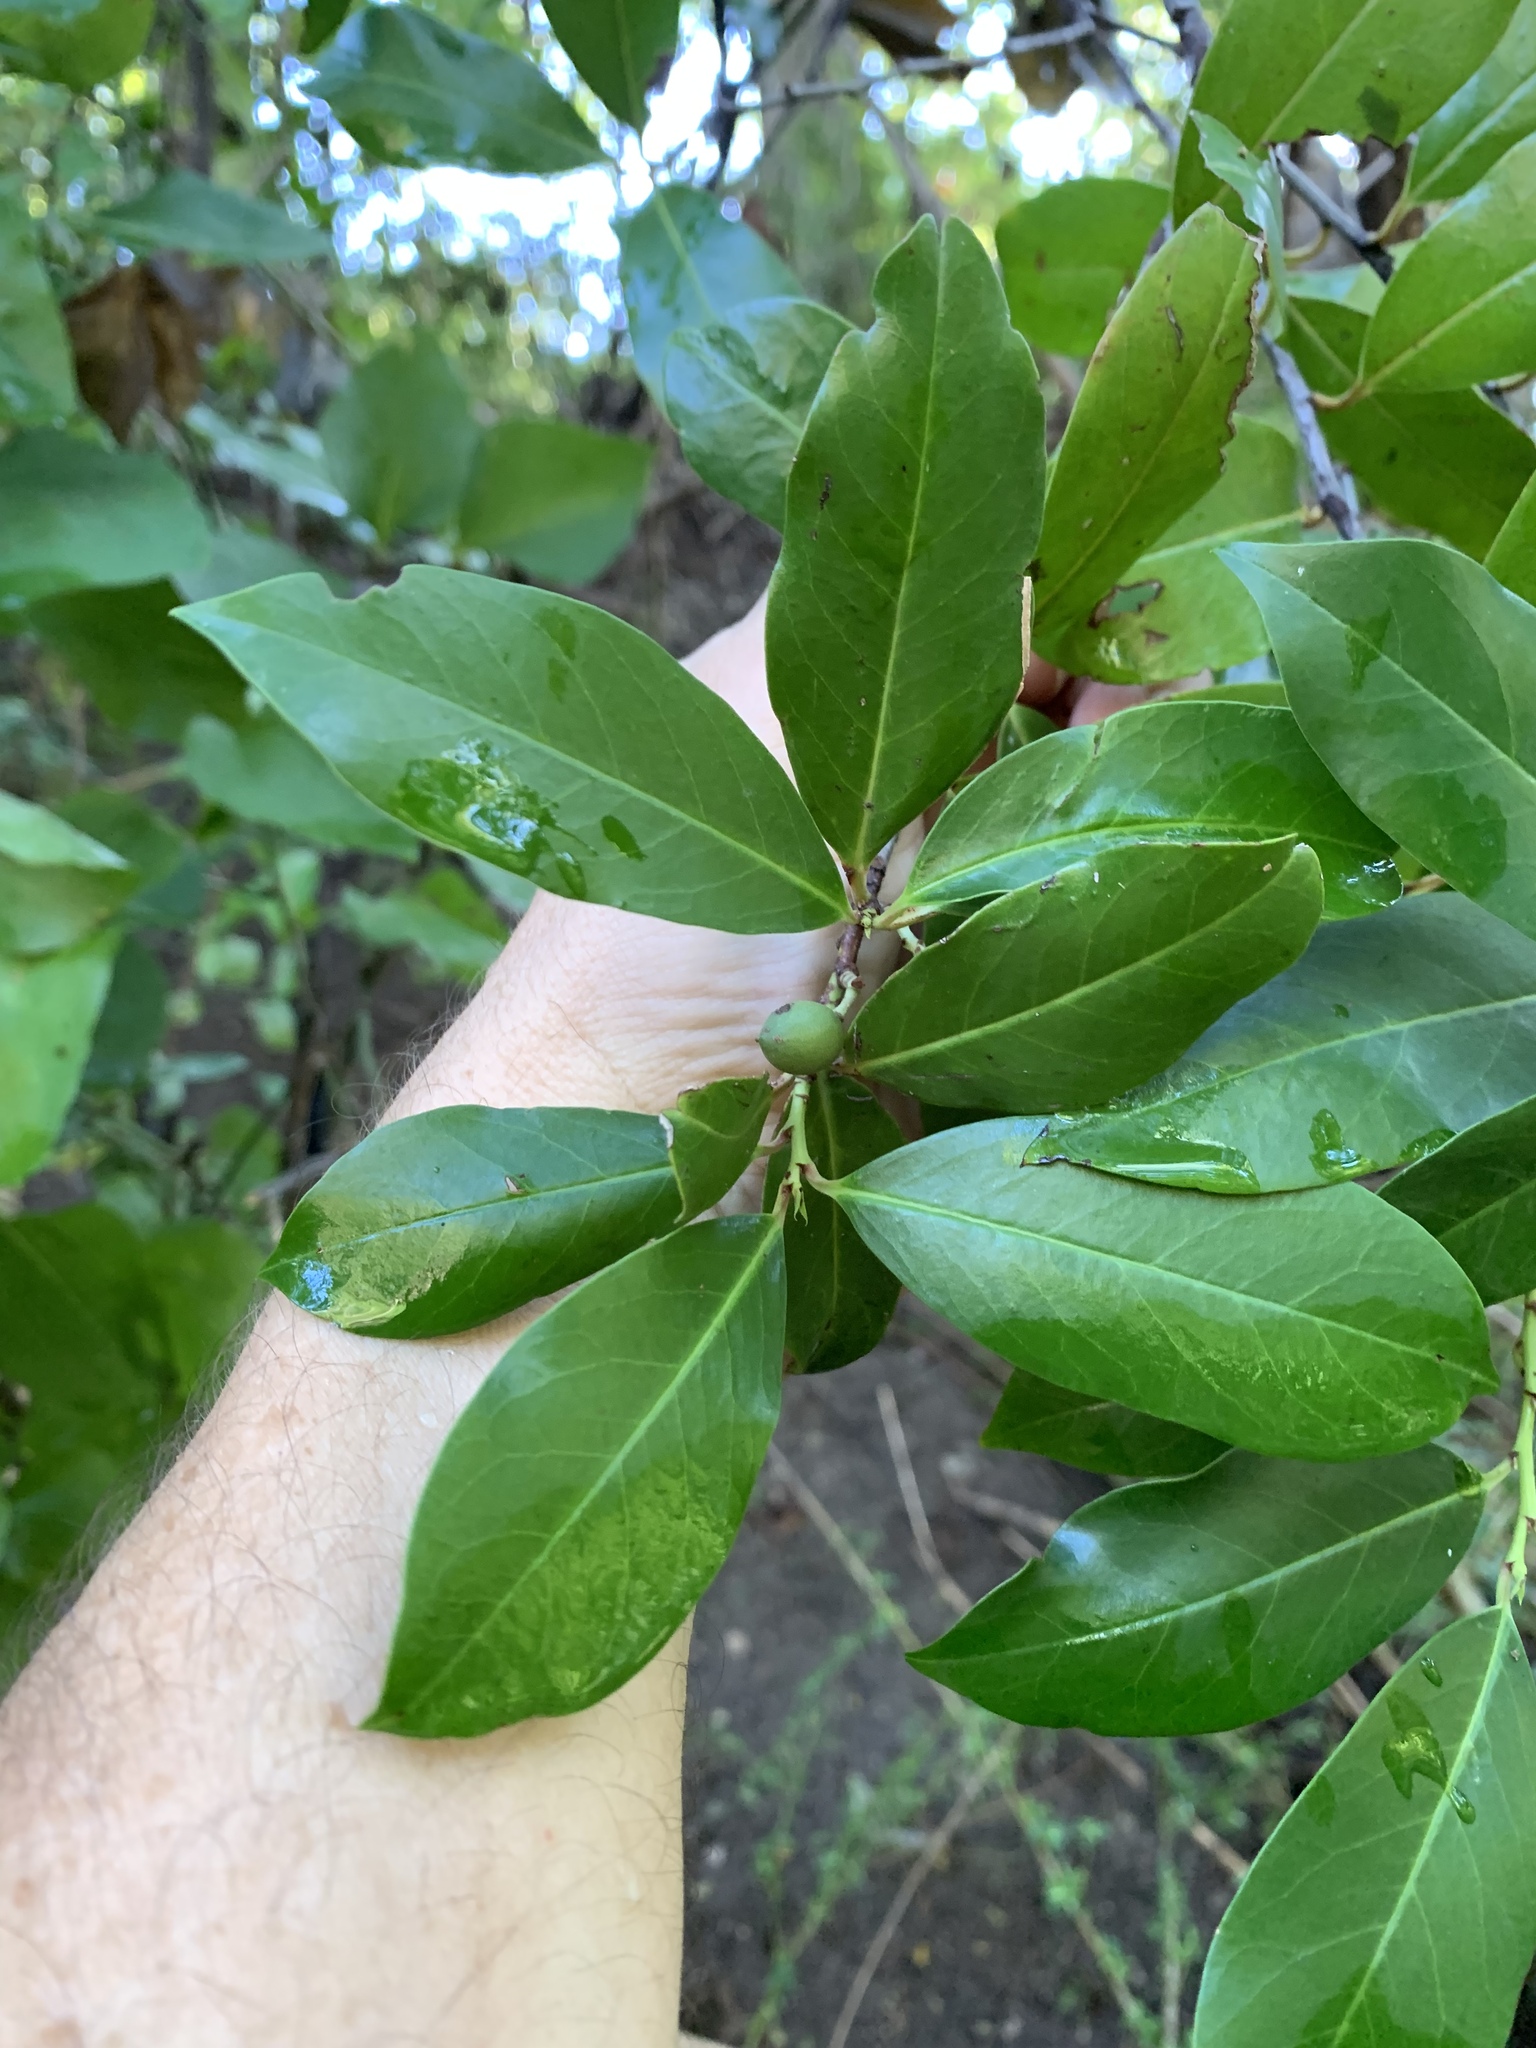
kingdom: Plantae
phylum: Tracheophyta
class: Magnoliopsida
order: Rosales
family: Rosaceae
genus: Prunus
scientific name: Prunus caroliniana
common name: Carolina laurel cherry
